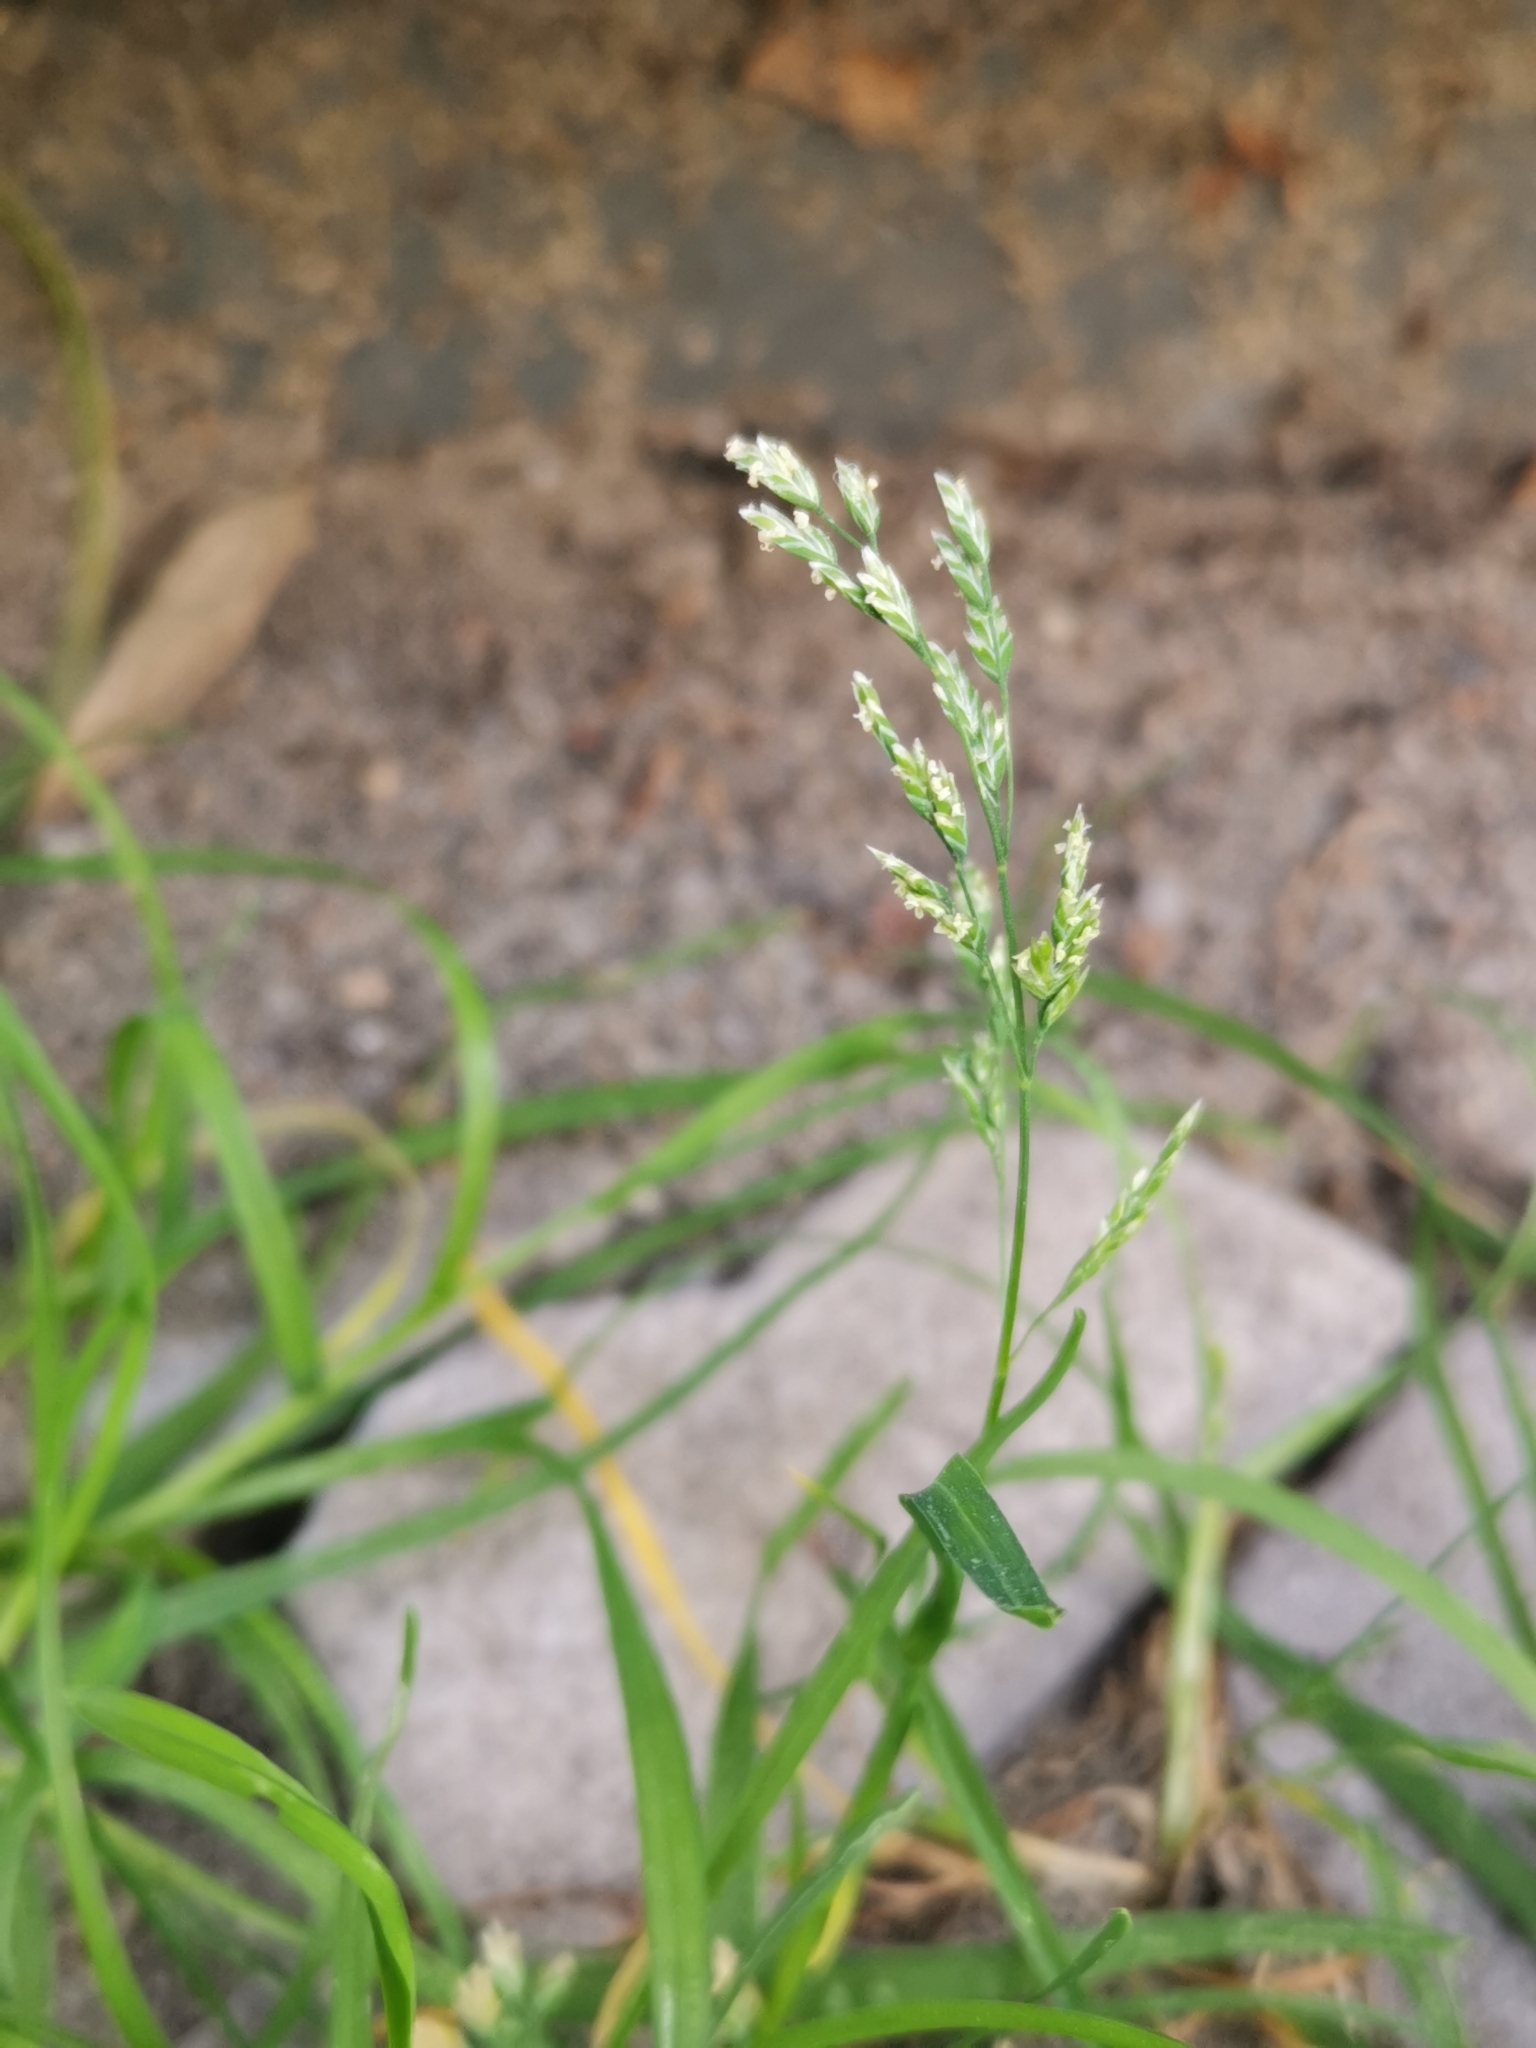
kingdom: Plantae
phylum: Tracheophyta
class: Liliopsida
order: Poales
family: Poaceae
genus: Poa
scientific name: Poa annua
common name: Annual bluegrass
